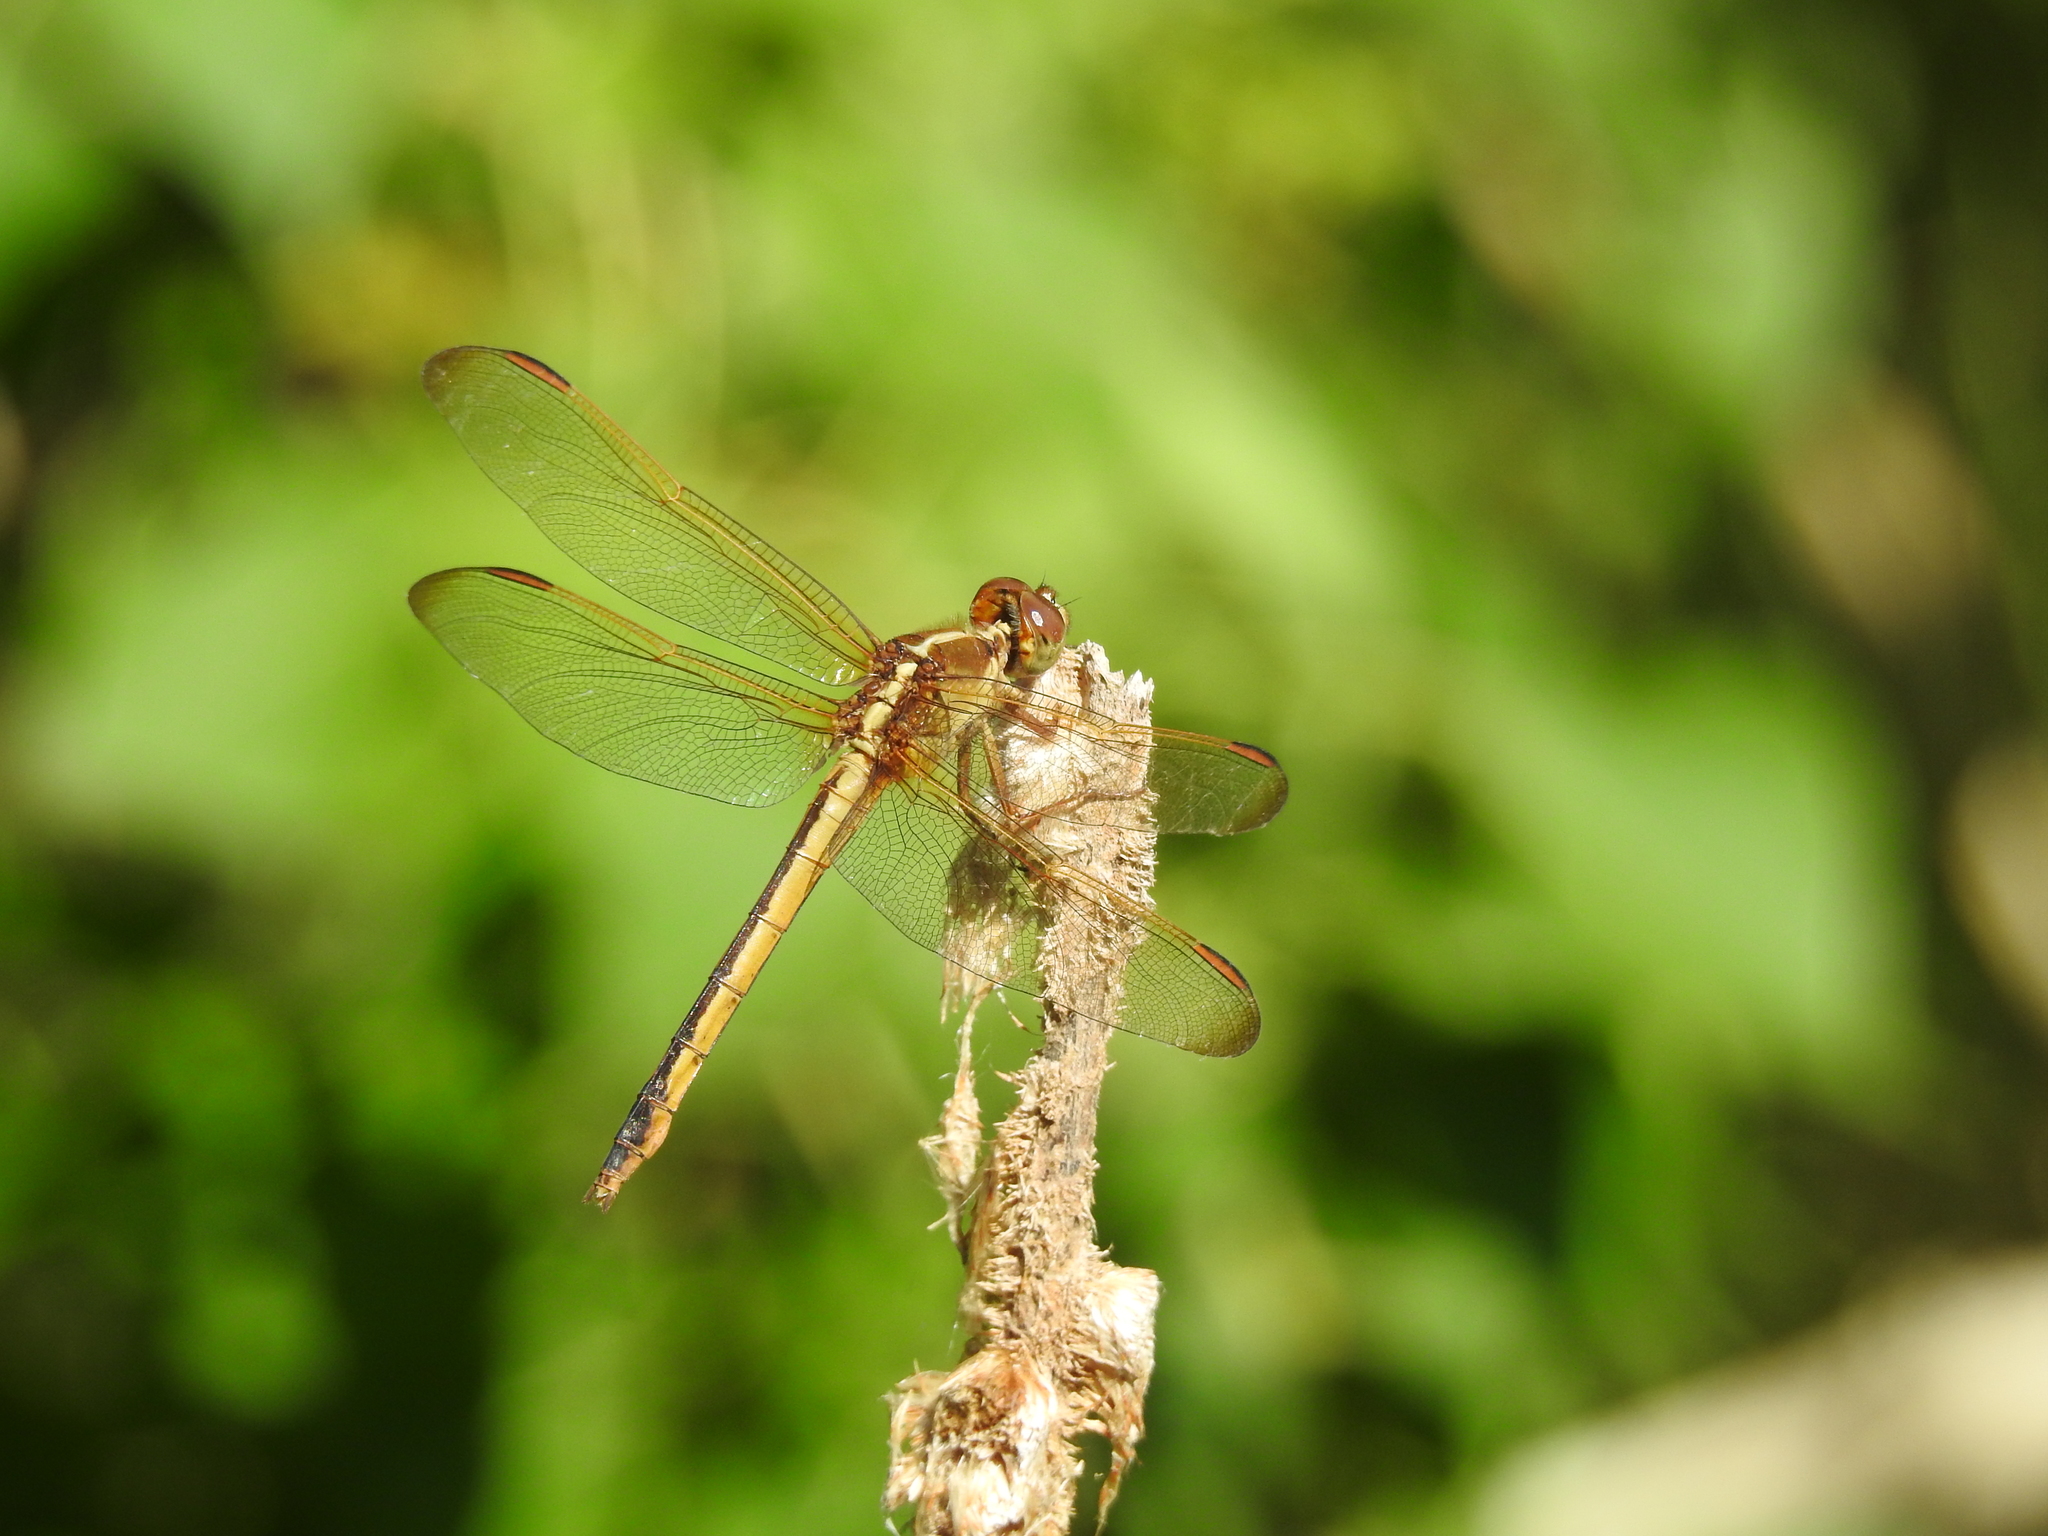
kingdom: Animalia
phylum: Arthropoda
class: Insecta
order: Odonata
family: Libellulidae
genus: Libellula
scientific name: Libellula needhami
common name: Needham's skimmer
